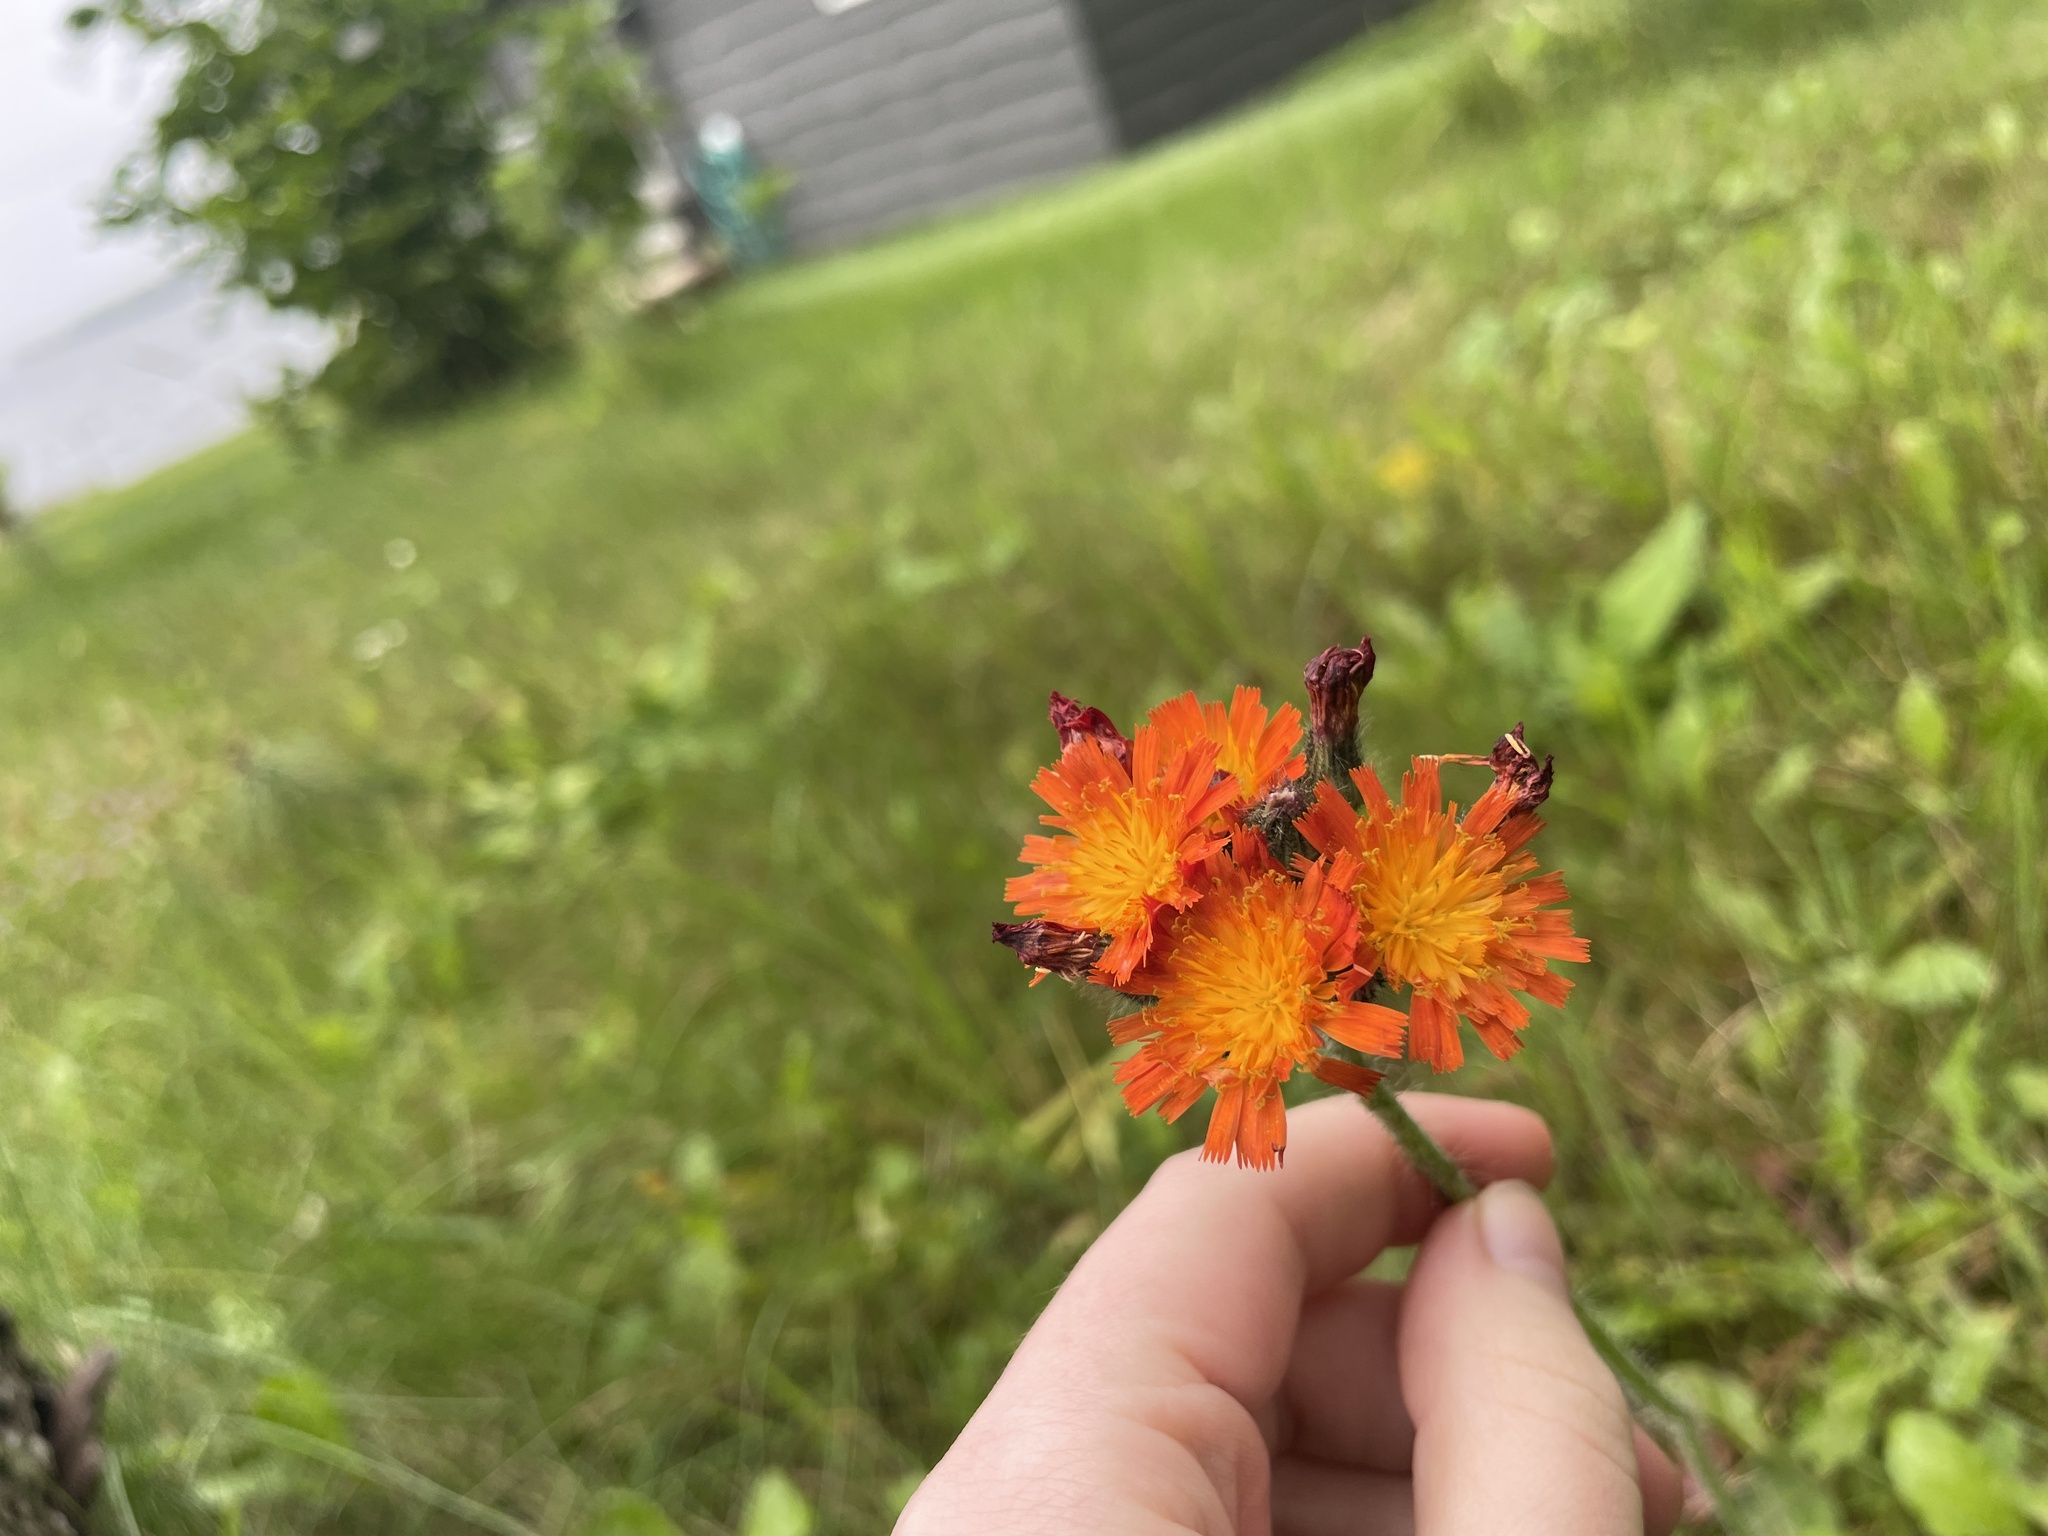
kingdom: Plantae
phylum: Tracheophyta
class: Magnoliopsida
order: Asterales
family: Asteraceae
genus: Pilosella
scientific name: Pilosella aurantiaca
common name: Fox-and-cubs
